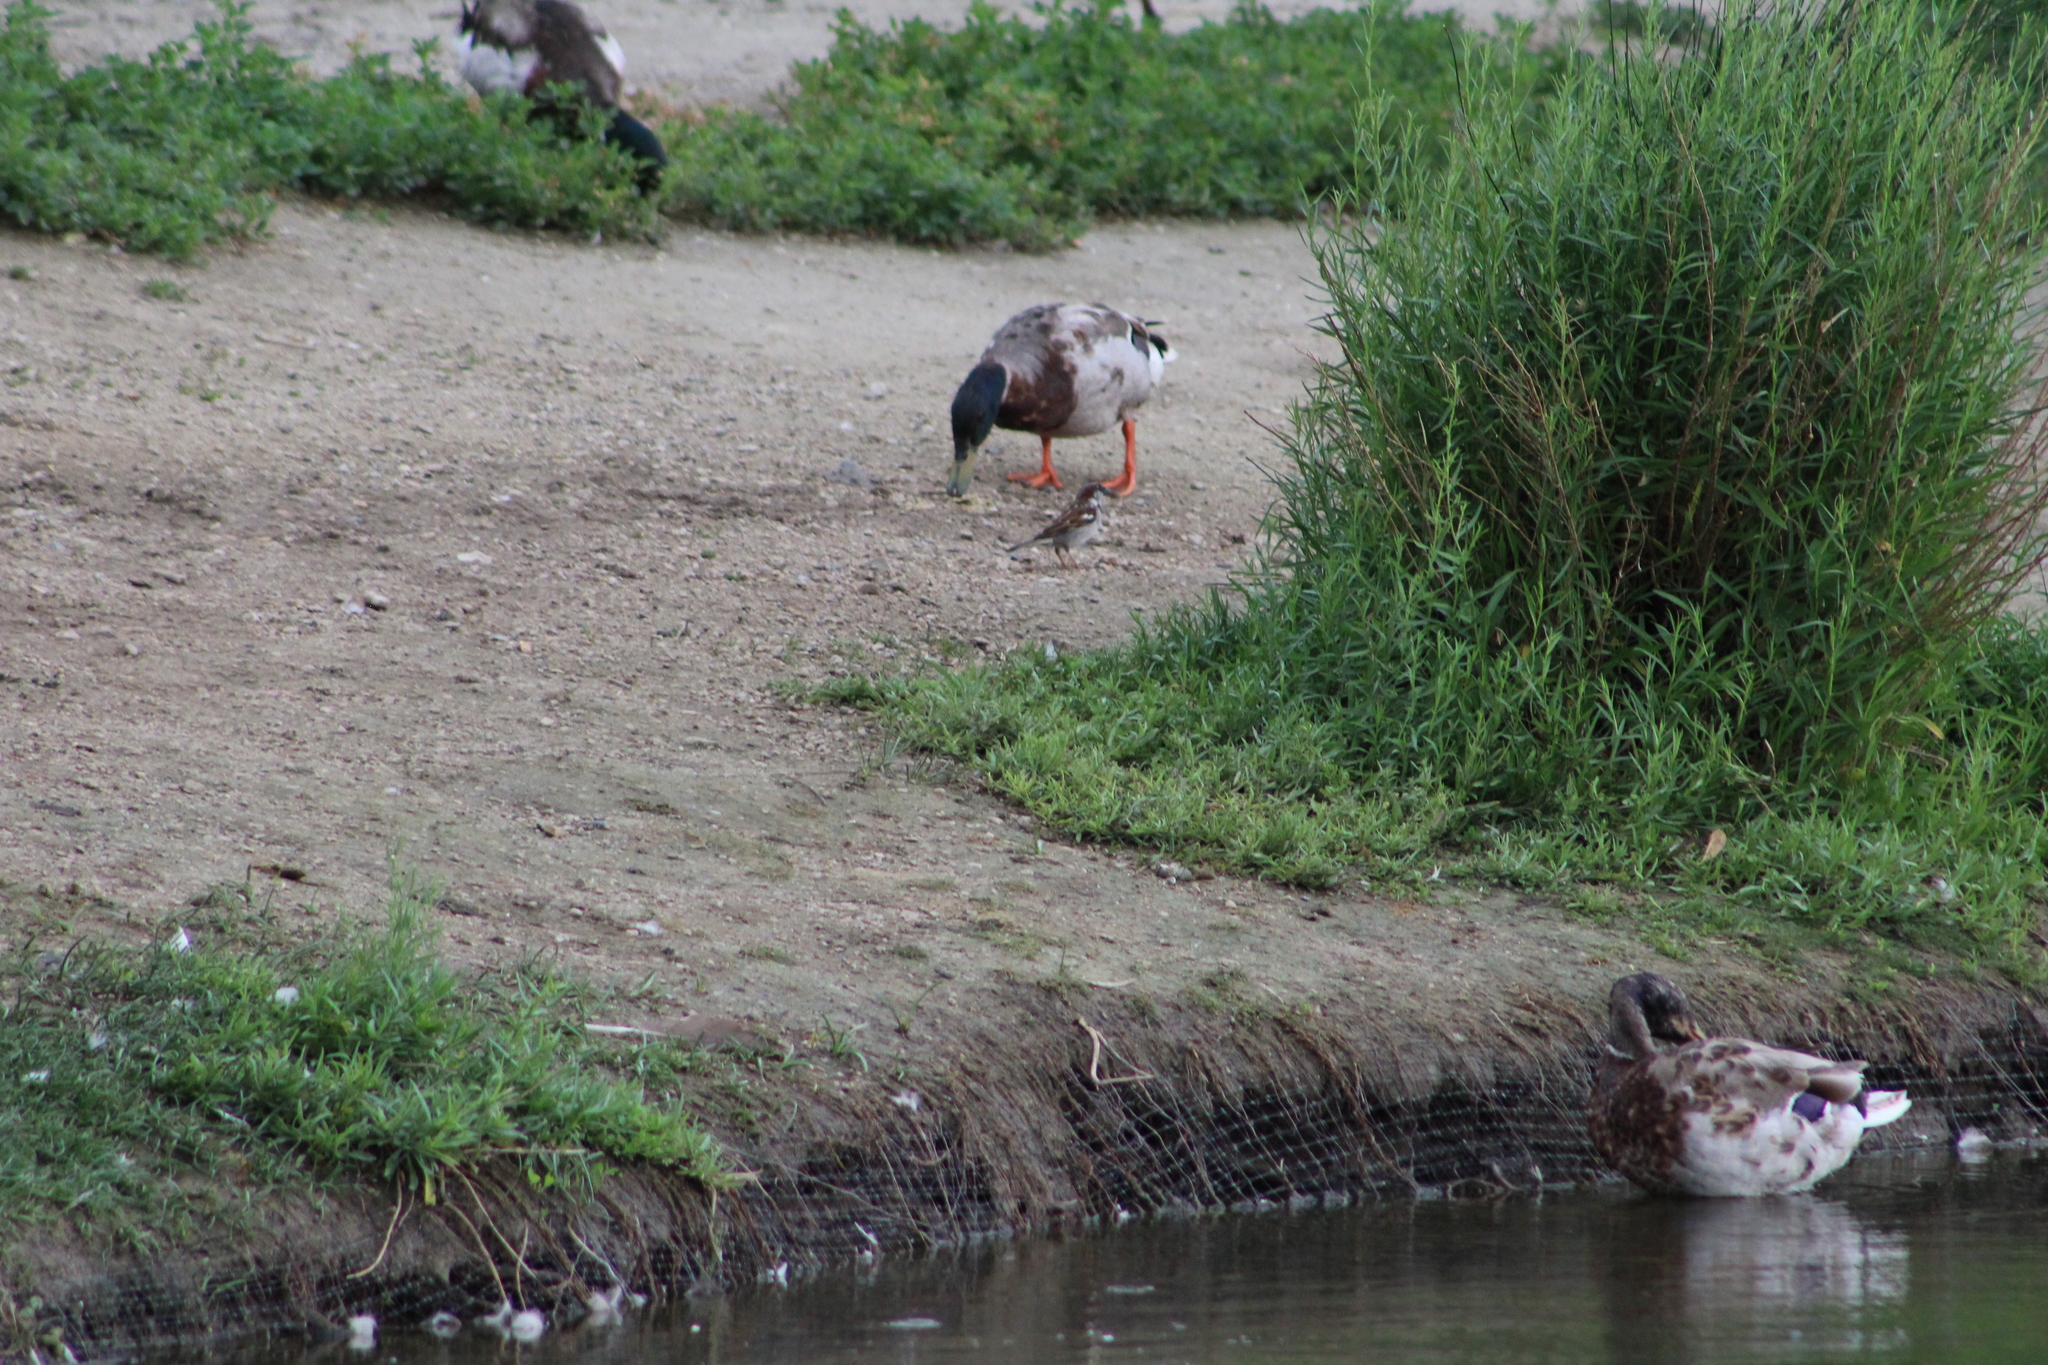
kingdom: Animalia
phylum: Chordata
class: Aves
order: Passeriformes
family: Passeridae
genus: Passer
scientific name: Passer domesticus
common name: House sparrow
